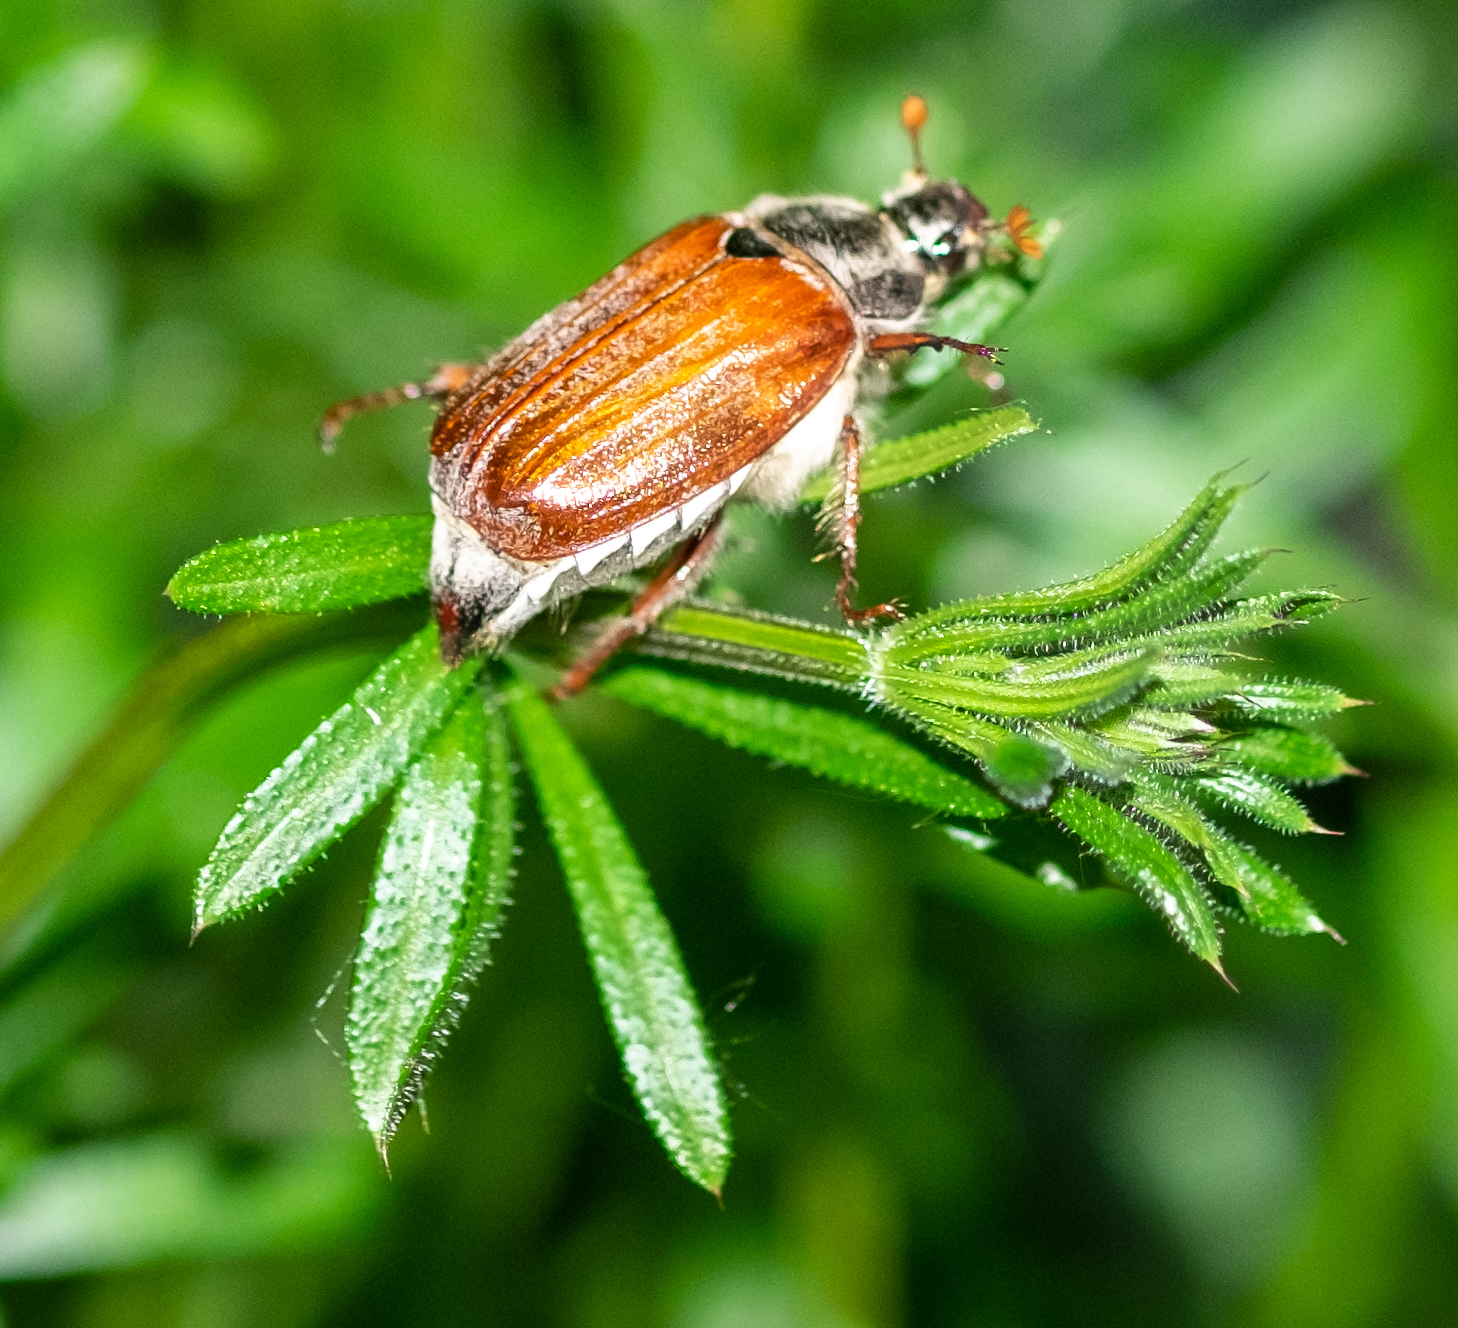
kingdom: Animalia
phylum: Arthropoda
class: Insecta
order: Coleoptera
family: Scarabaeidae
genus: Melolontha
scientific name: Melolontha melolontha
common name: Cockchafer maybeetle
